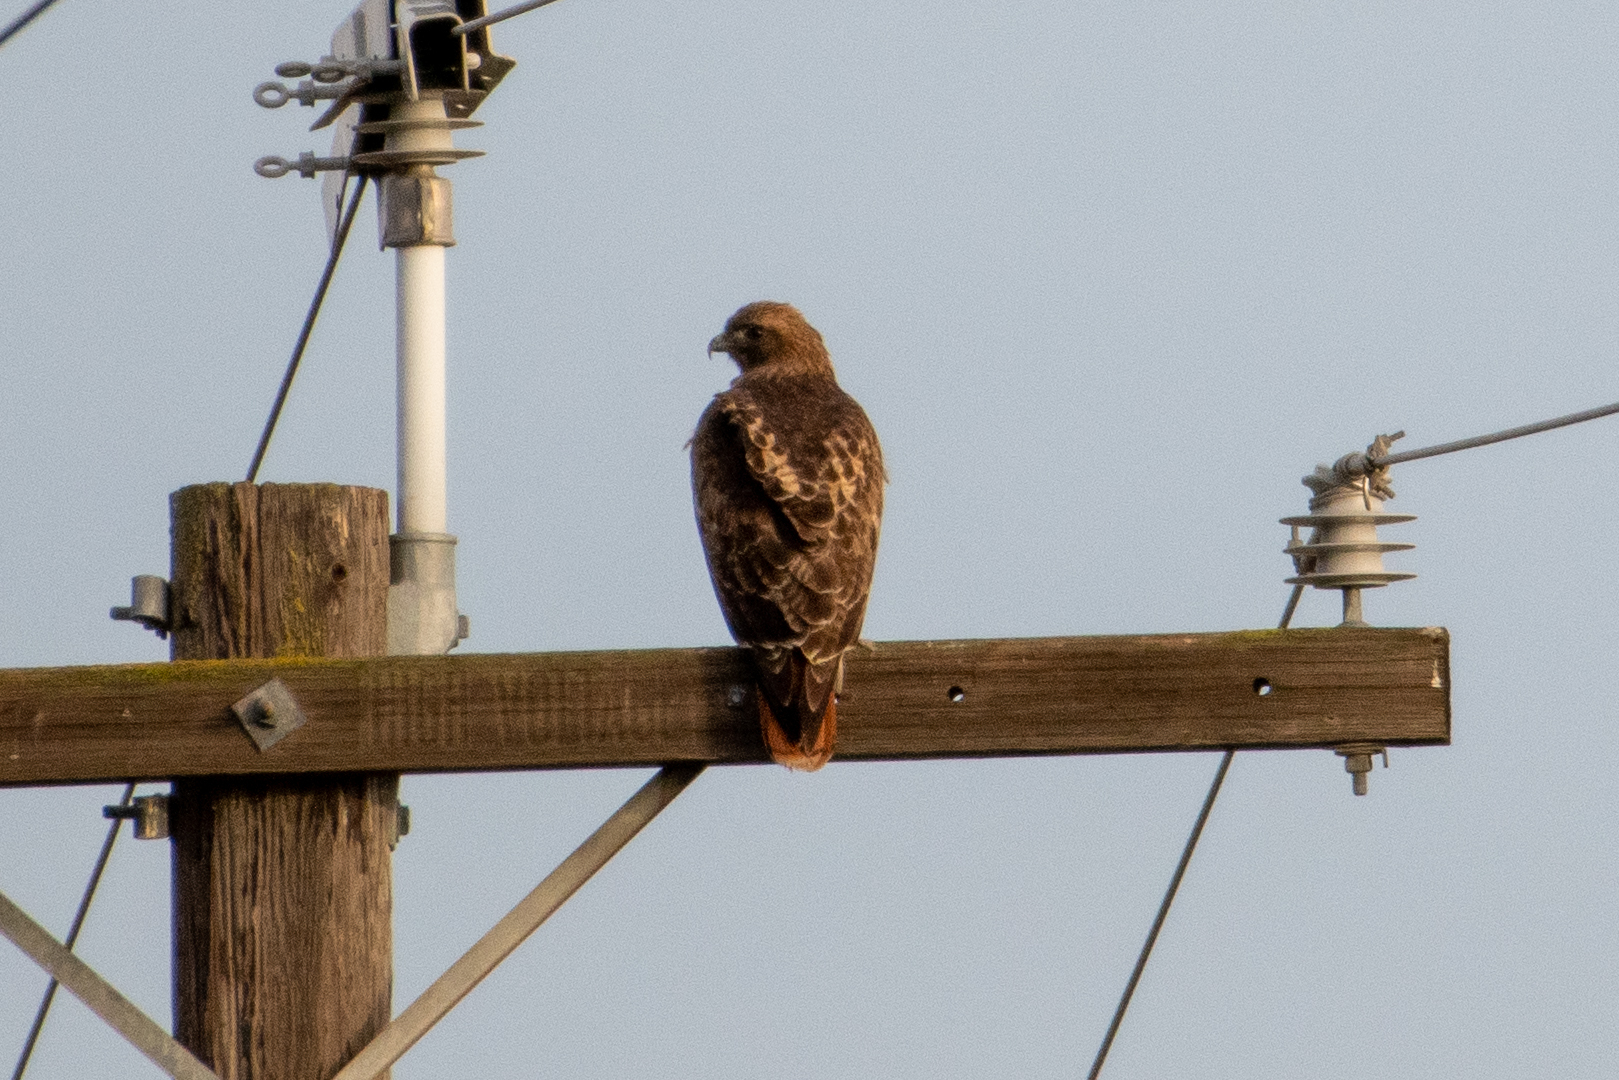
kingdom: Animalia
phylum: Chordata
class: Aves
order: Accipitriformes
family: Accipitridae
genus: Buteo
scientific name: Buteo jamaicensis
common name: Red-tailed hawk
